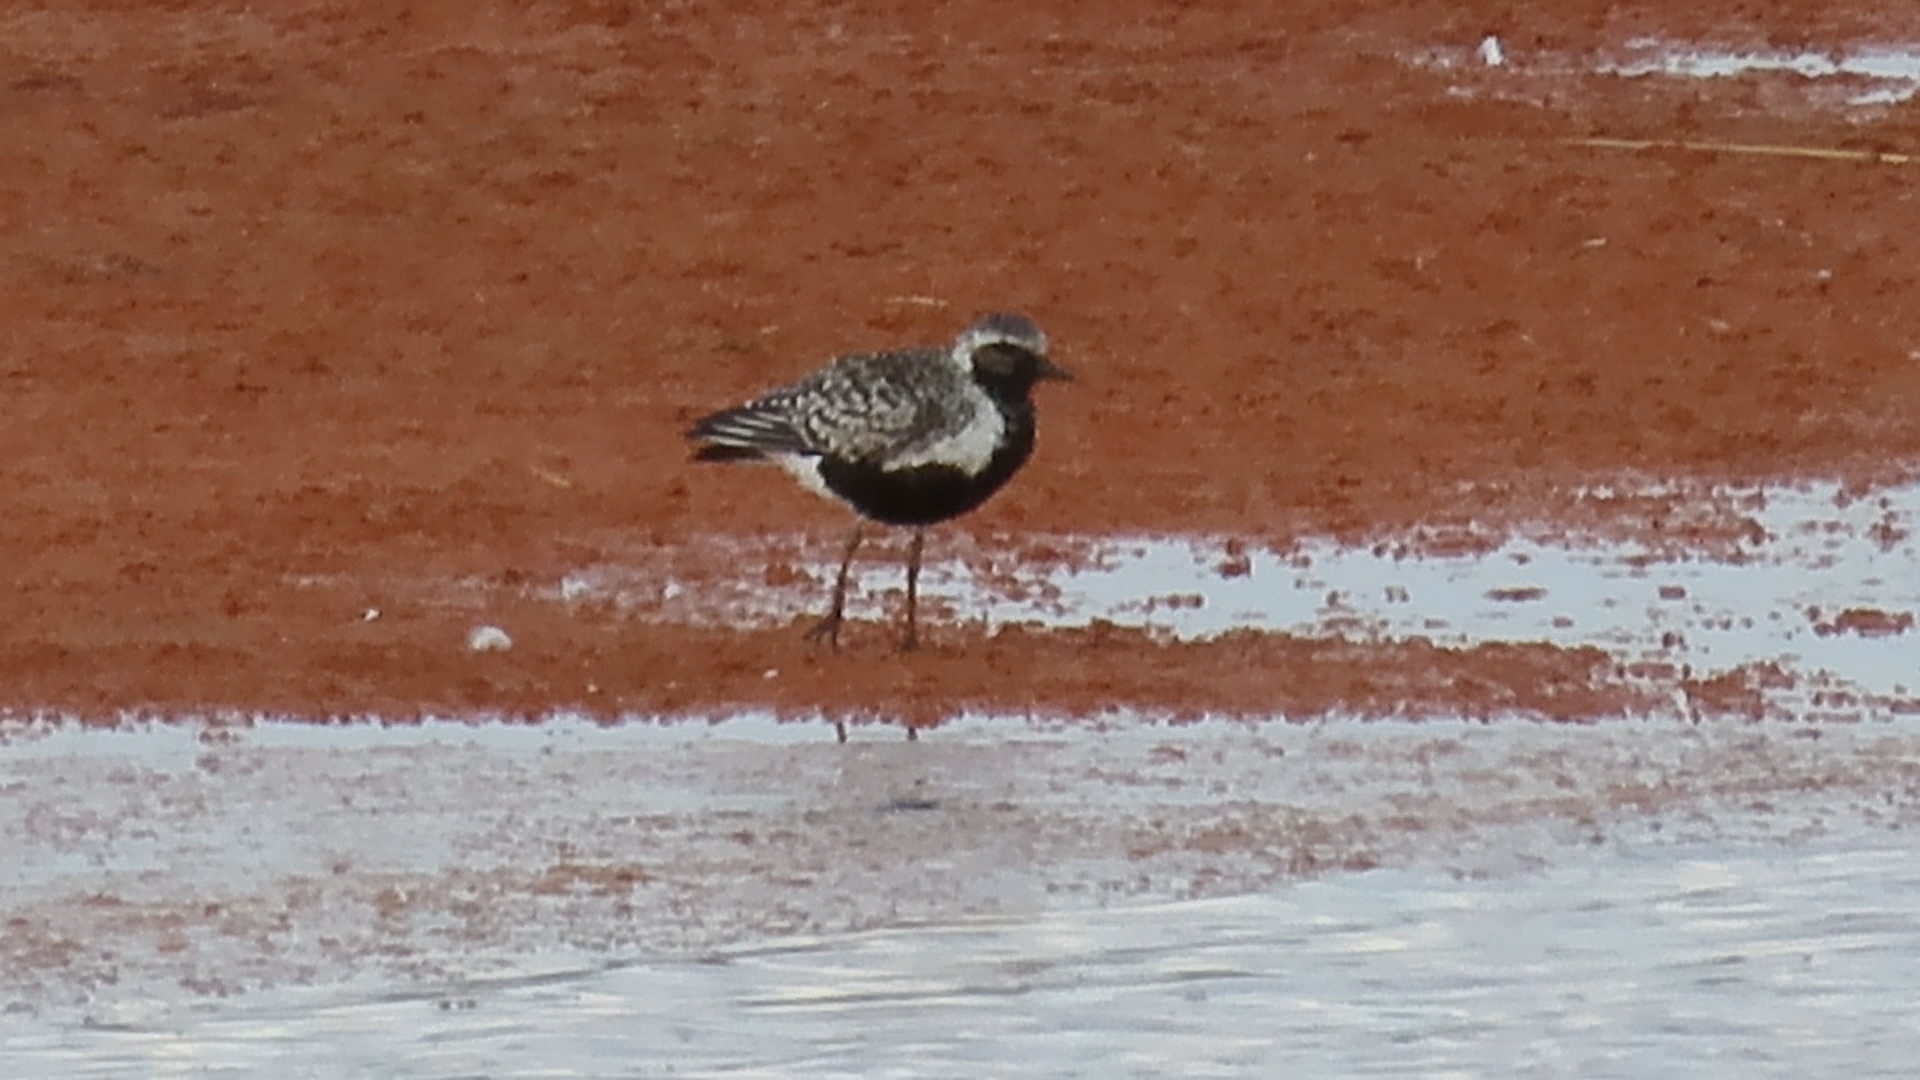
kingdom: Animalia
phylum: Chordata
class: Aves
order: Charadriiformes
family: Charadriidae
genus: Pluvialis
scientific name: Pluvialis squatarola
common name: Grey plover
